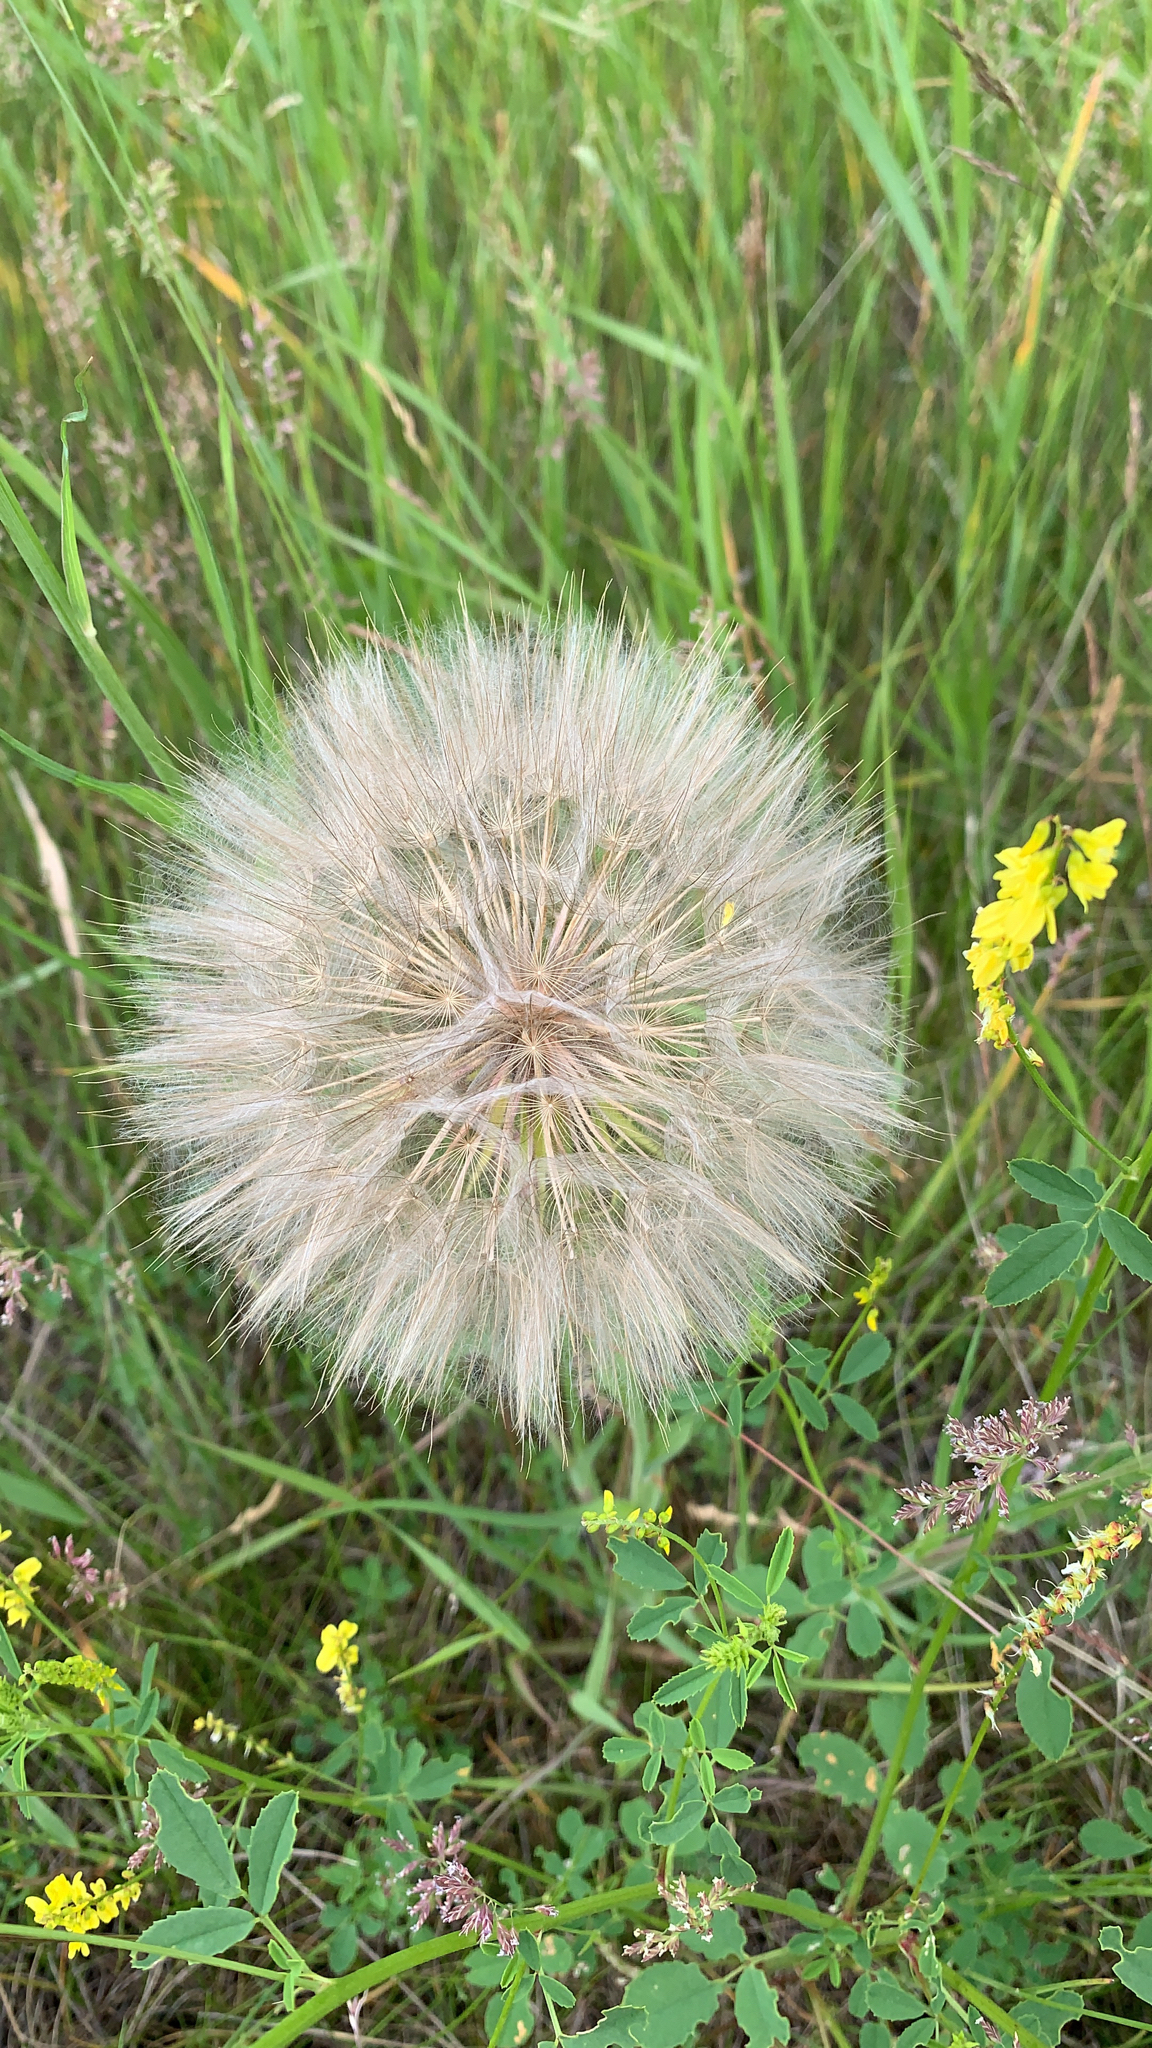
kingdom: Plantae
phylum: Tracheophyta
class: Magnoliopsida
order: Asterales
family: Asteraceae
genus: Tragopogon
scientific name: Tragopogon
